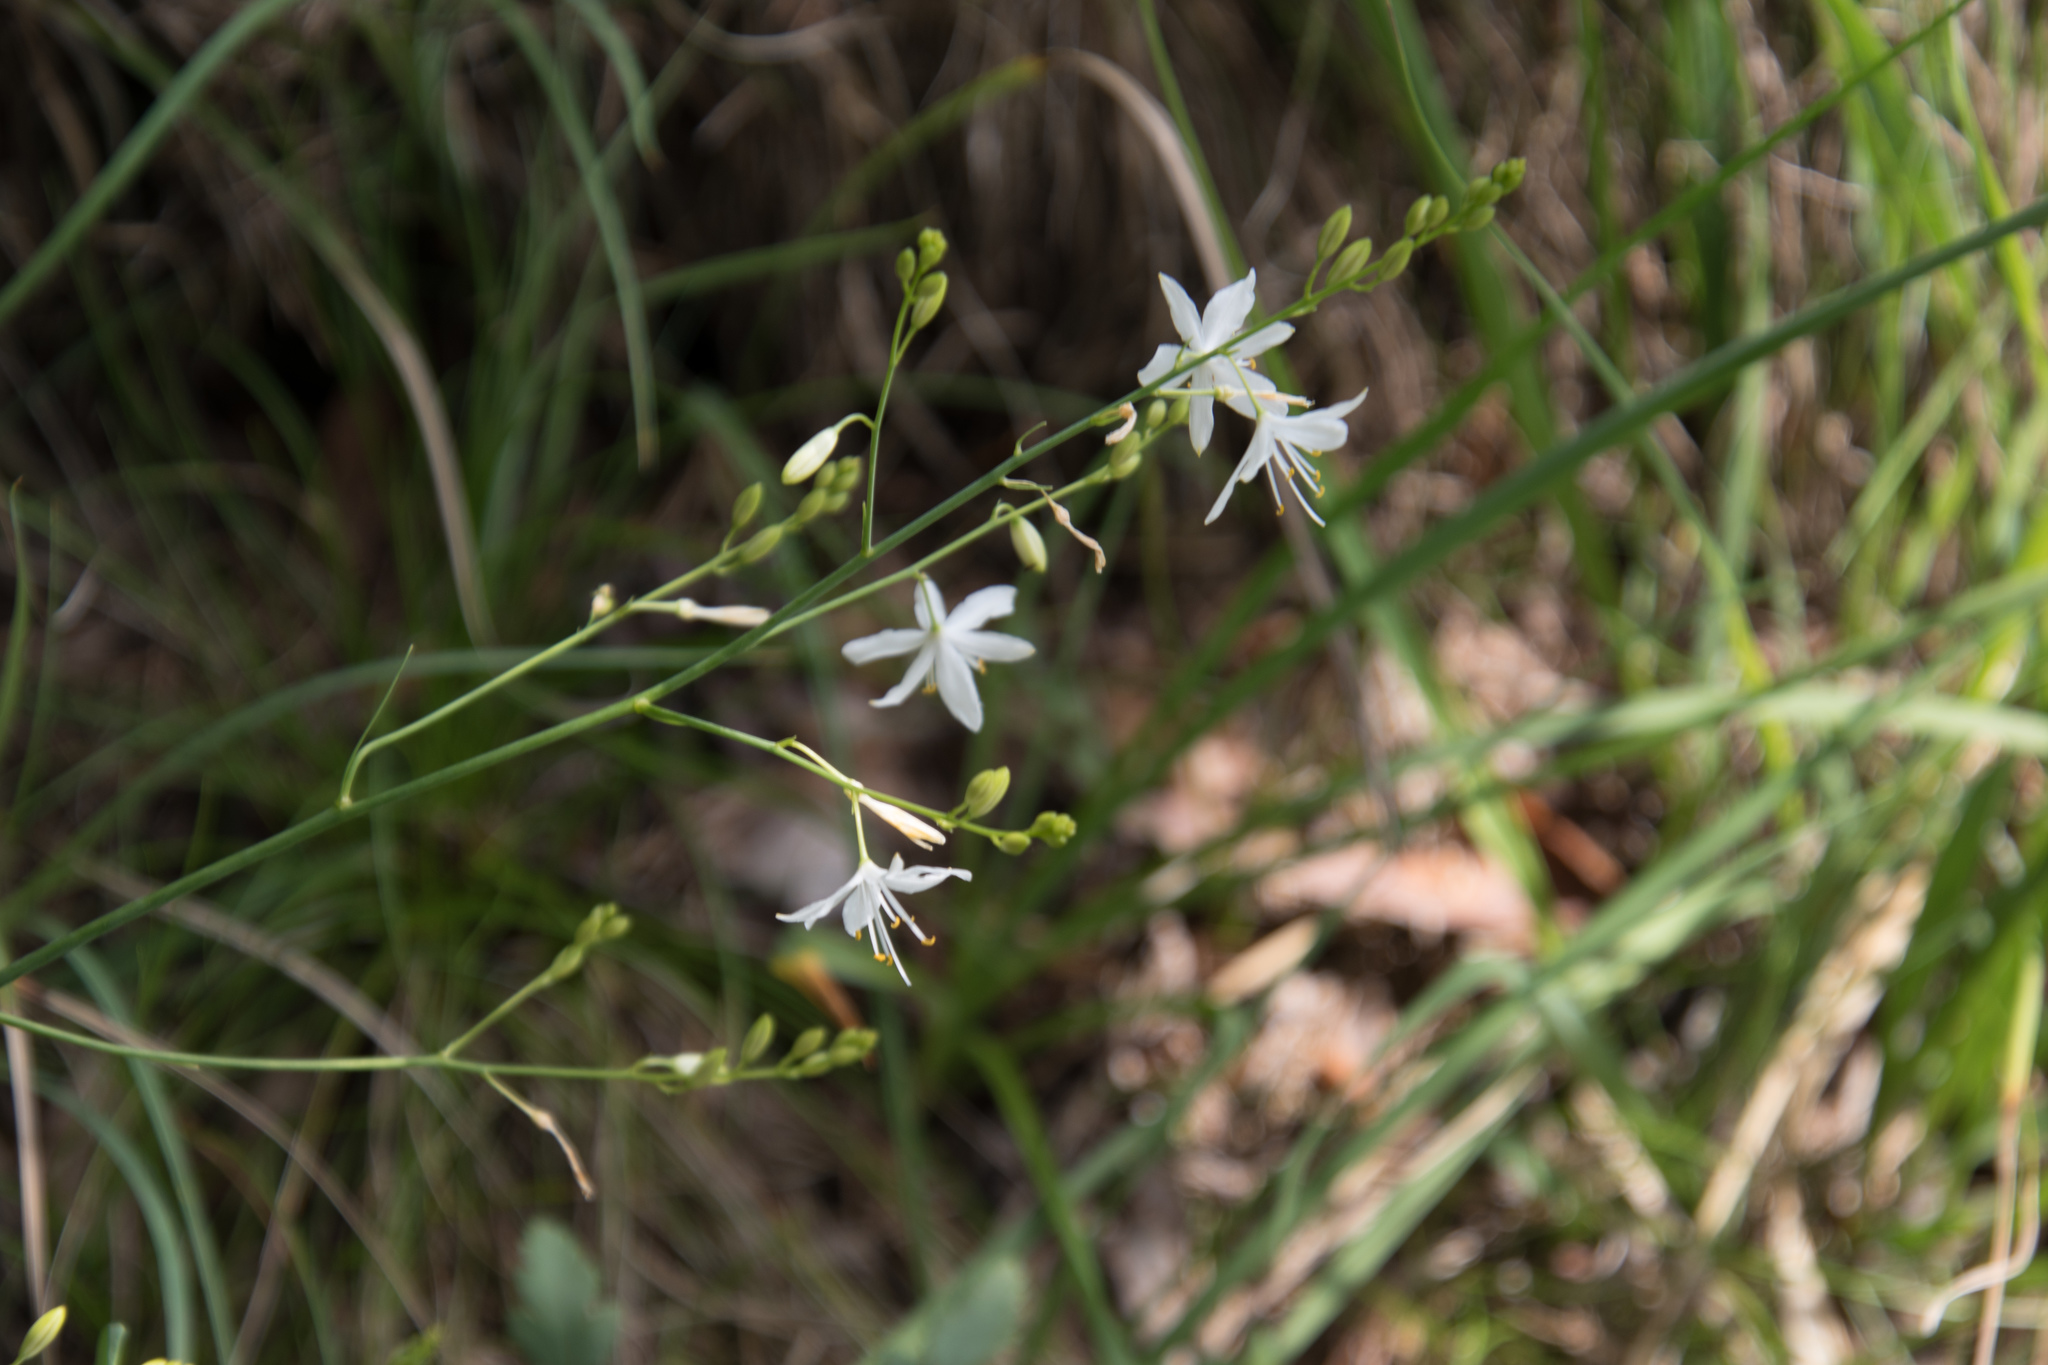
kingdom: Plantae
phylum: Tracheophyta
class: Liliopsida
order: Asparagales
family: Asparagaceae
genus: Anthericum
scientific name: Anthericum ramosum
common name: Branched st. bernard's-lily
